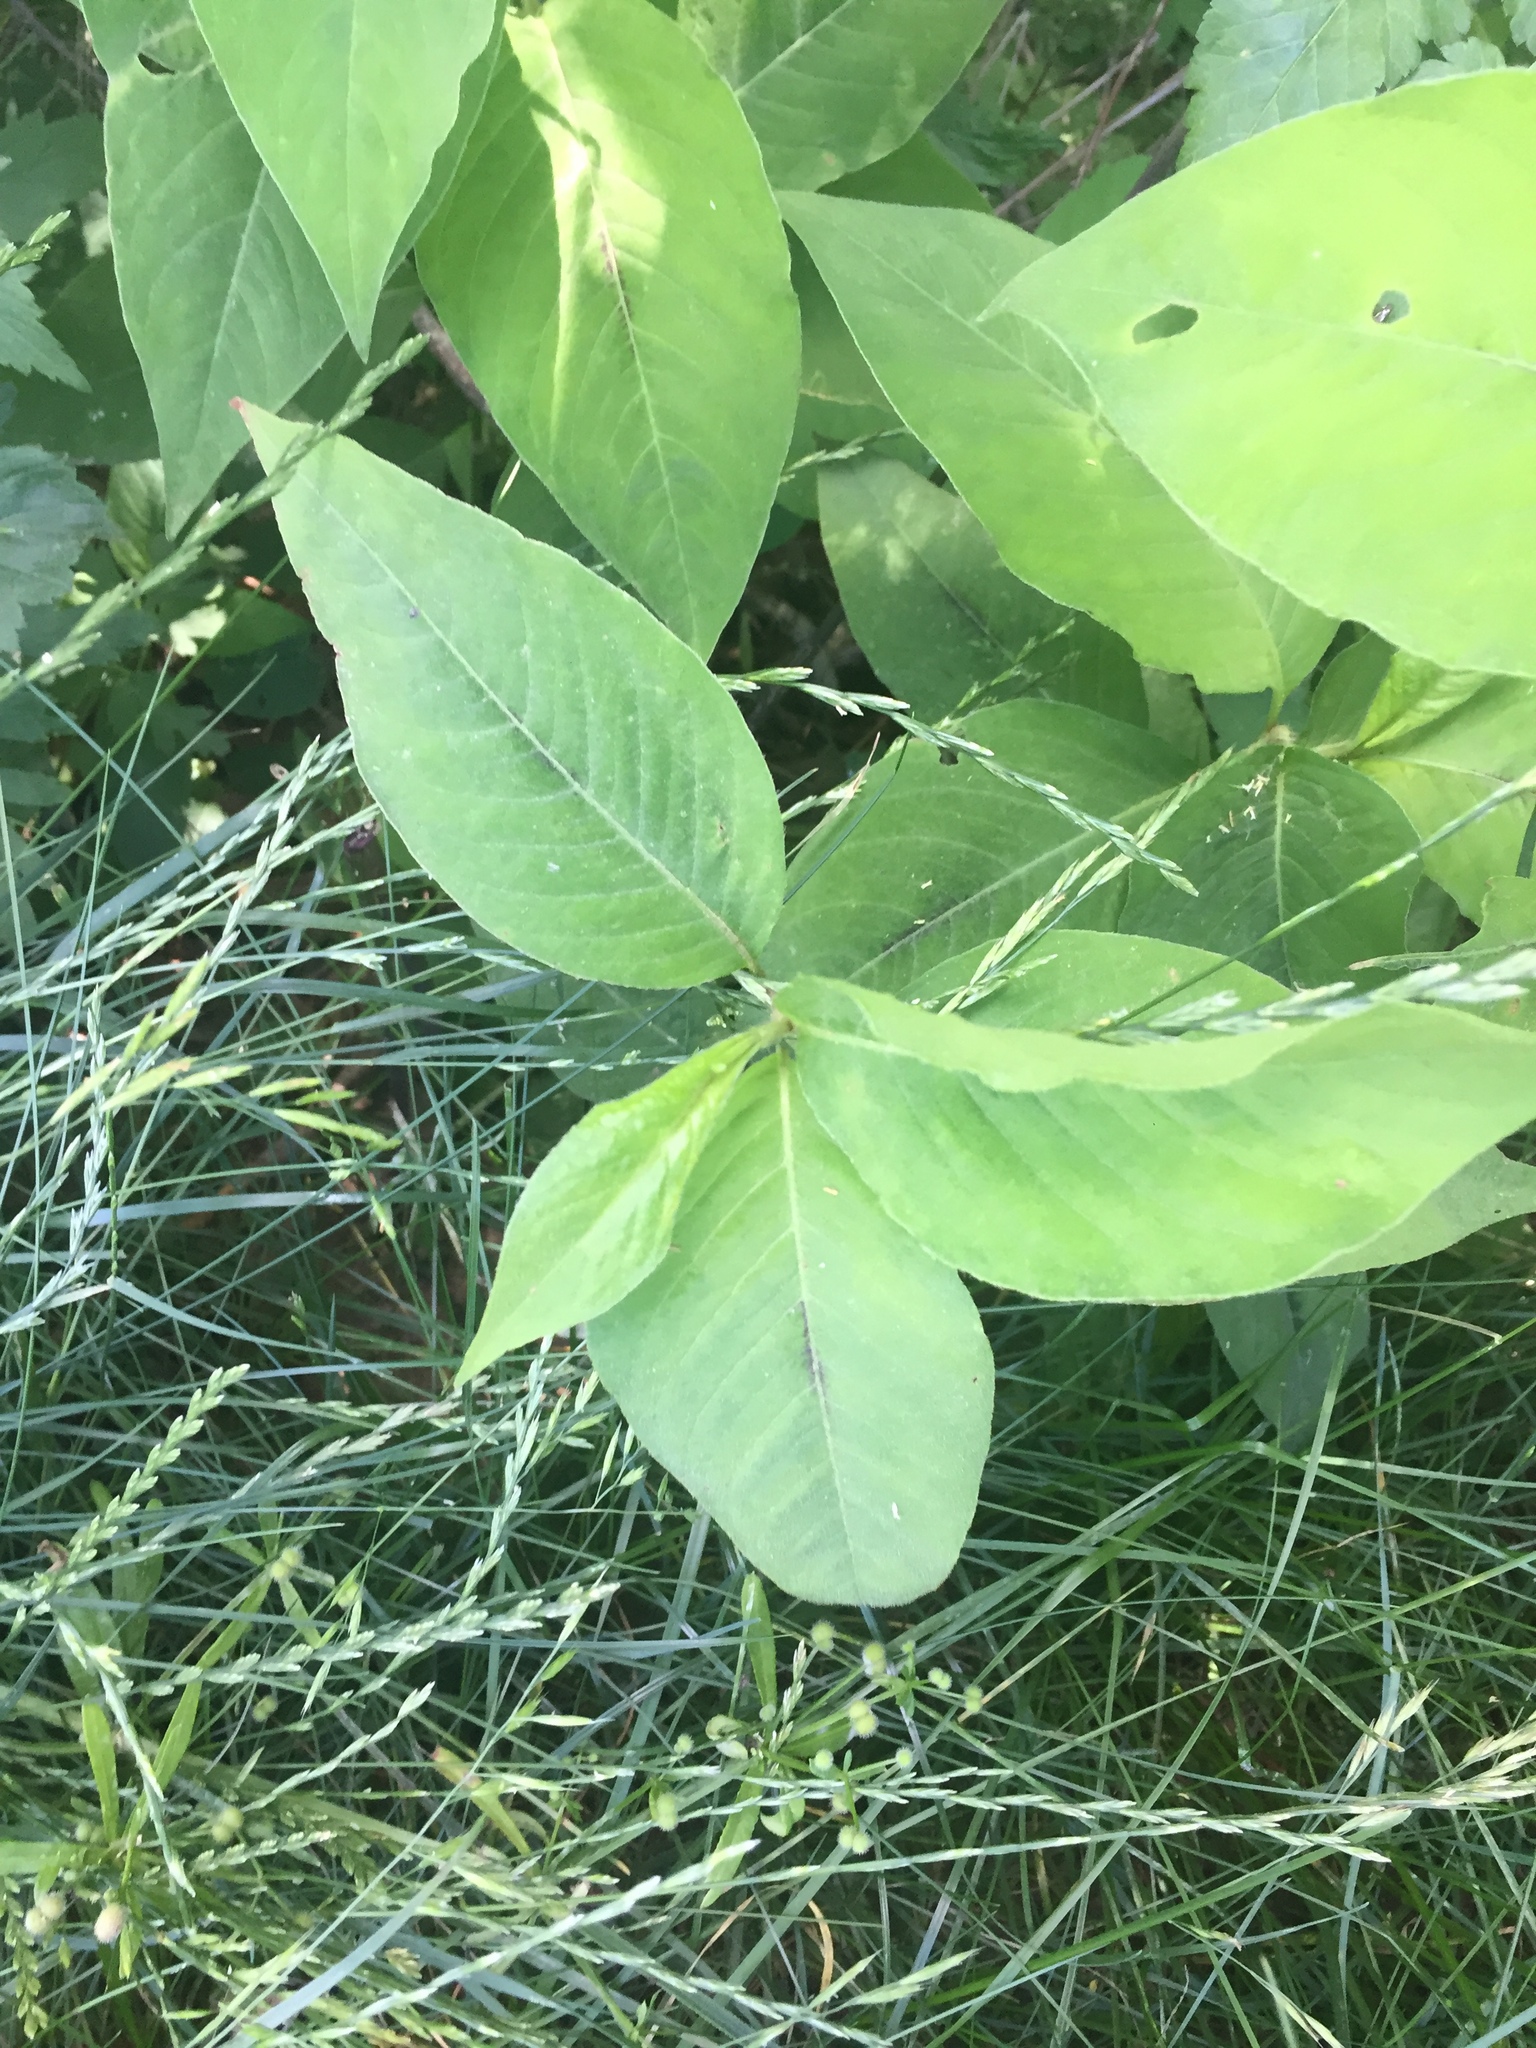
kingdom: Plantae
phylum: Tracheophyta
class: Magnoliopsida
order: Caryophyllales
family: Polygonaceae
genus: Persicaria
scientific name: Persicaria virginiana
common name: Jumpseed
